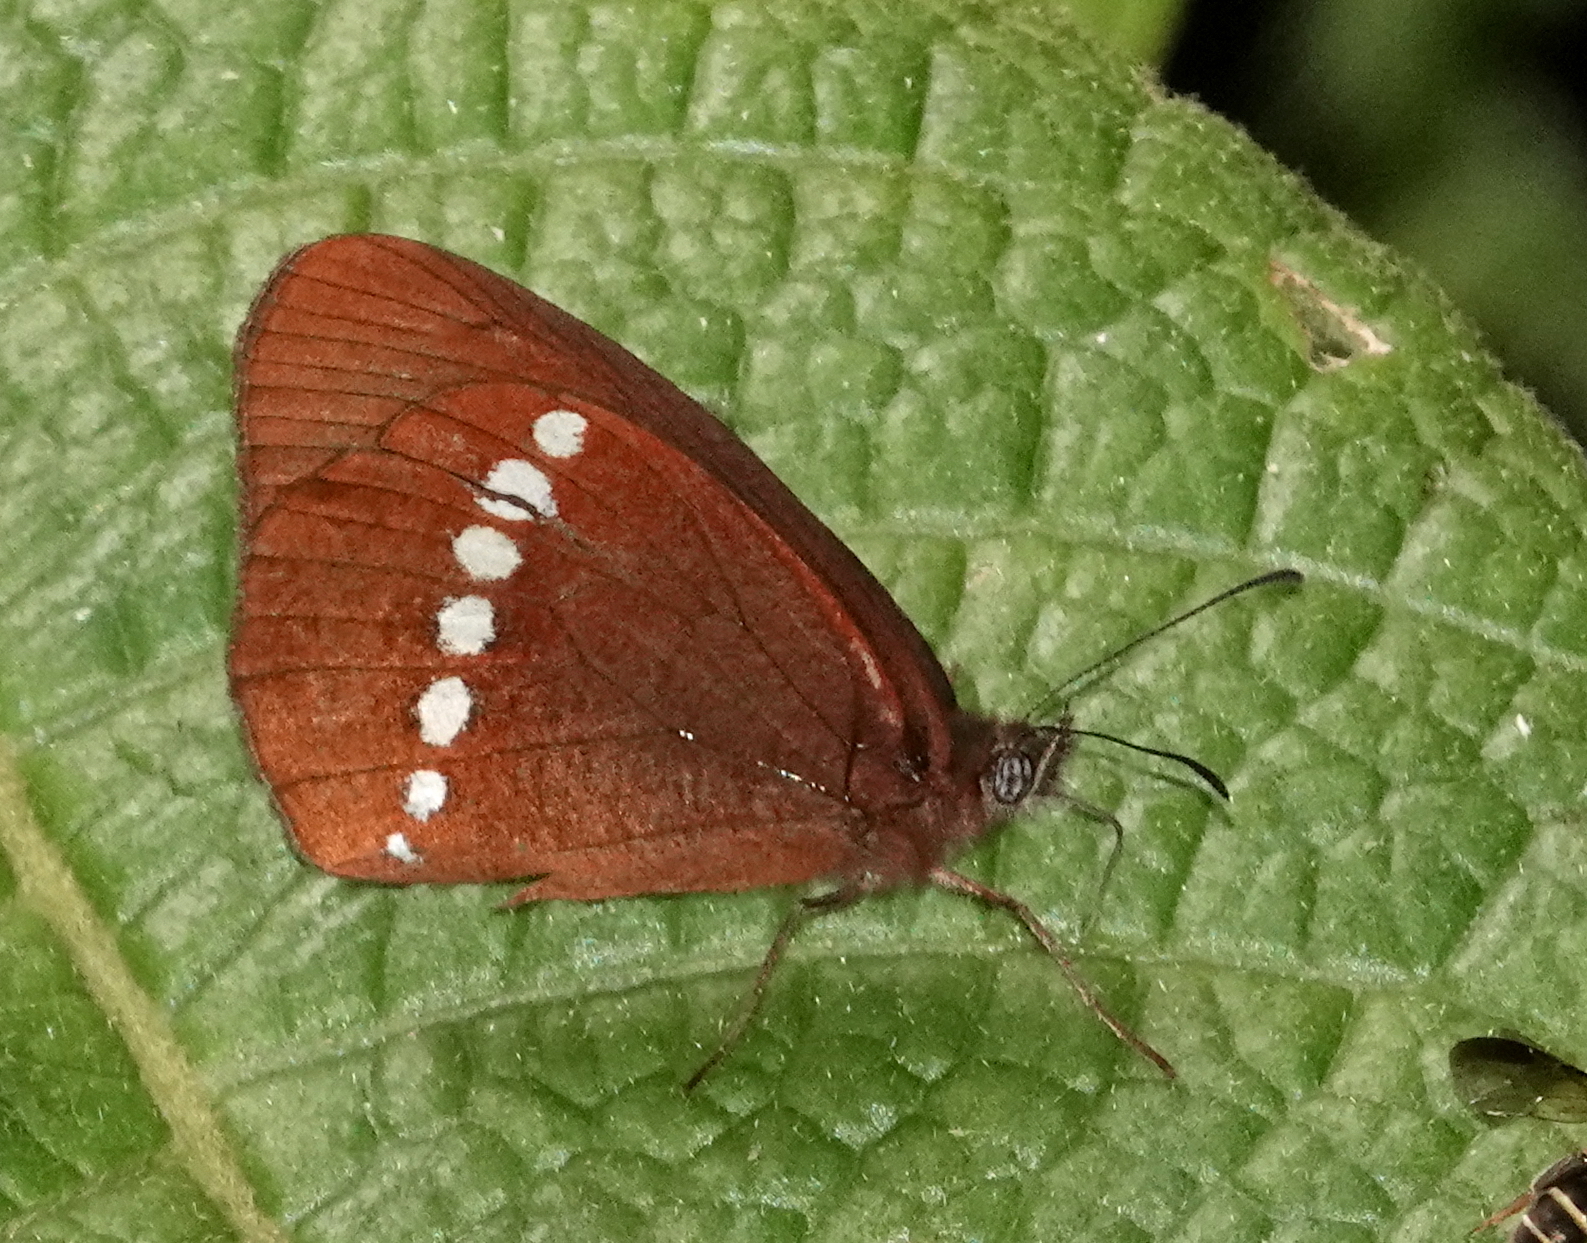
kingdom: Animalia
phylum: Arthropoda
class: Insecta
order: Lepidoptera
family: Nymphalidae
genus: Lymanopoda
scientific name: Lymanopoda florenciensis
